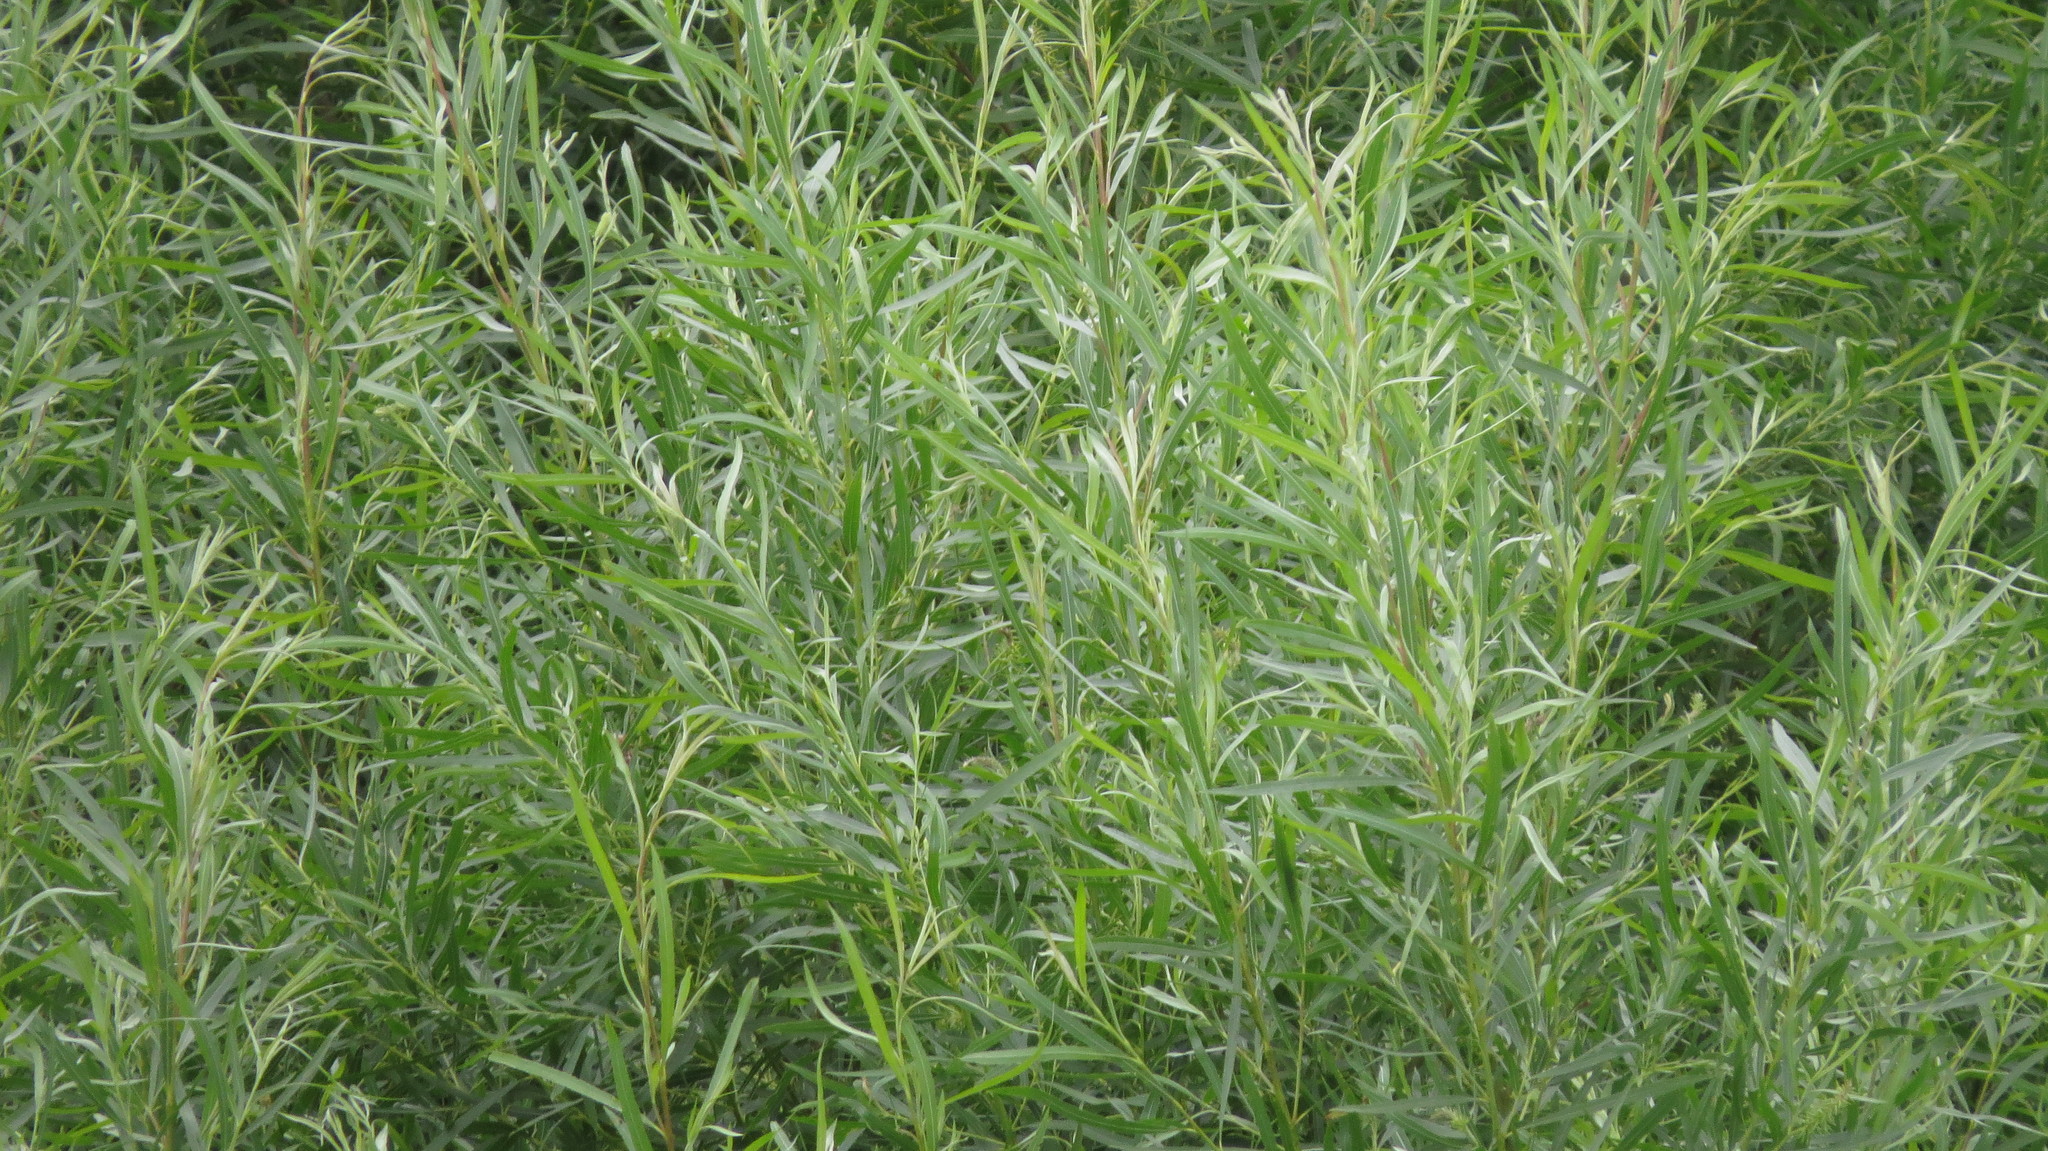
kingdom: Plantae
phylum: Tracheophyta
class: Magnoliopsida
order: Malpighiales
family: Salicaceae
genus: Salix
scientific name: Salix interior
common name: Sandbar willow
